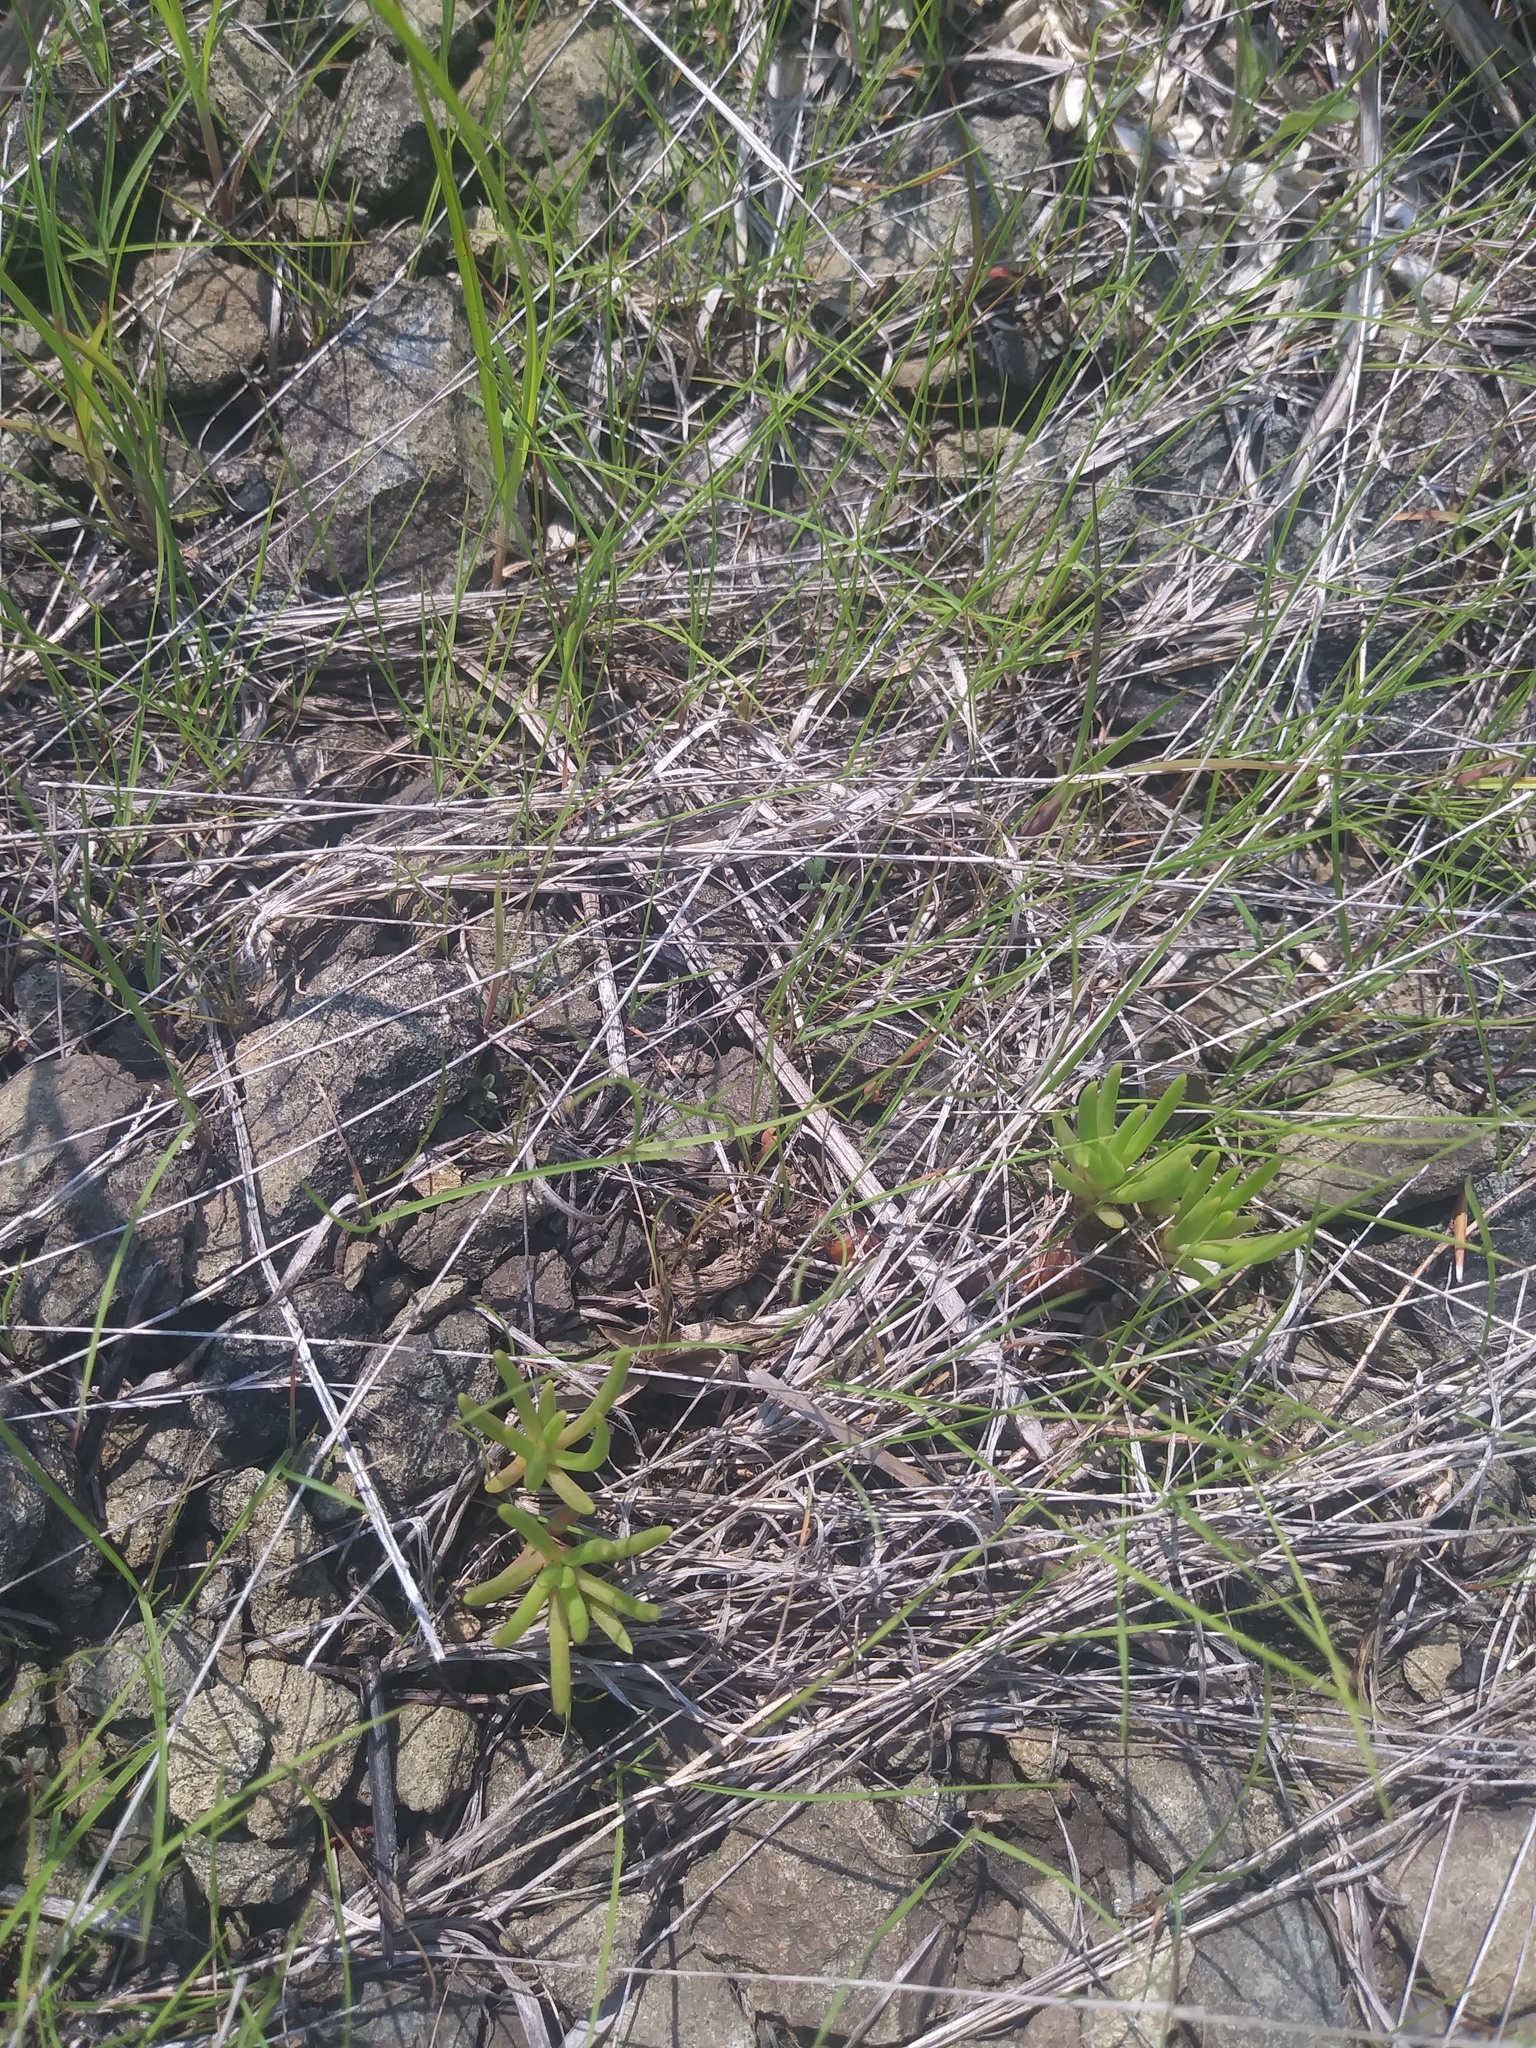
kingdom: Plantae
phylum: Tracheophyta
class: Magnoliopsida
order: Caryophyllales
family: Montiaceae
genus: Phemeranthus
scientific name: Phemeranthus teretifolius
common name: Quill fameflower
